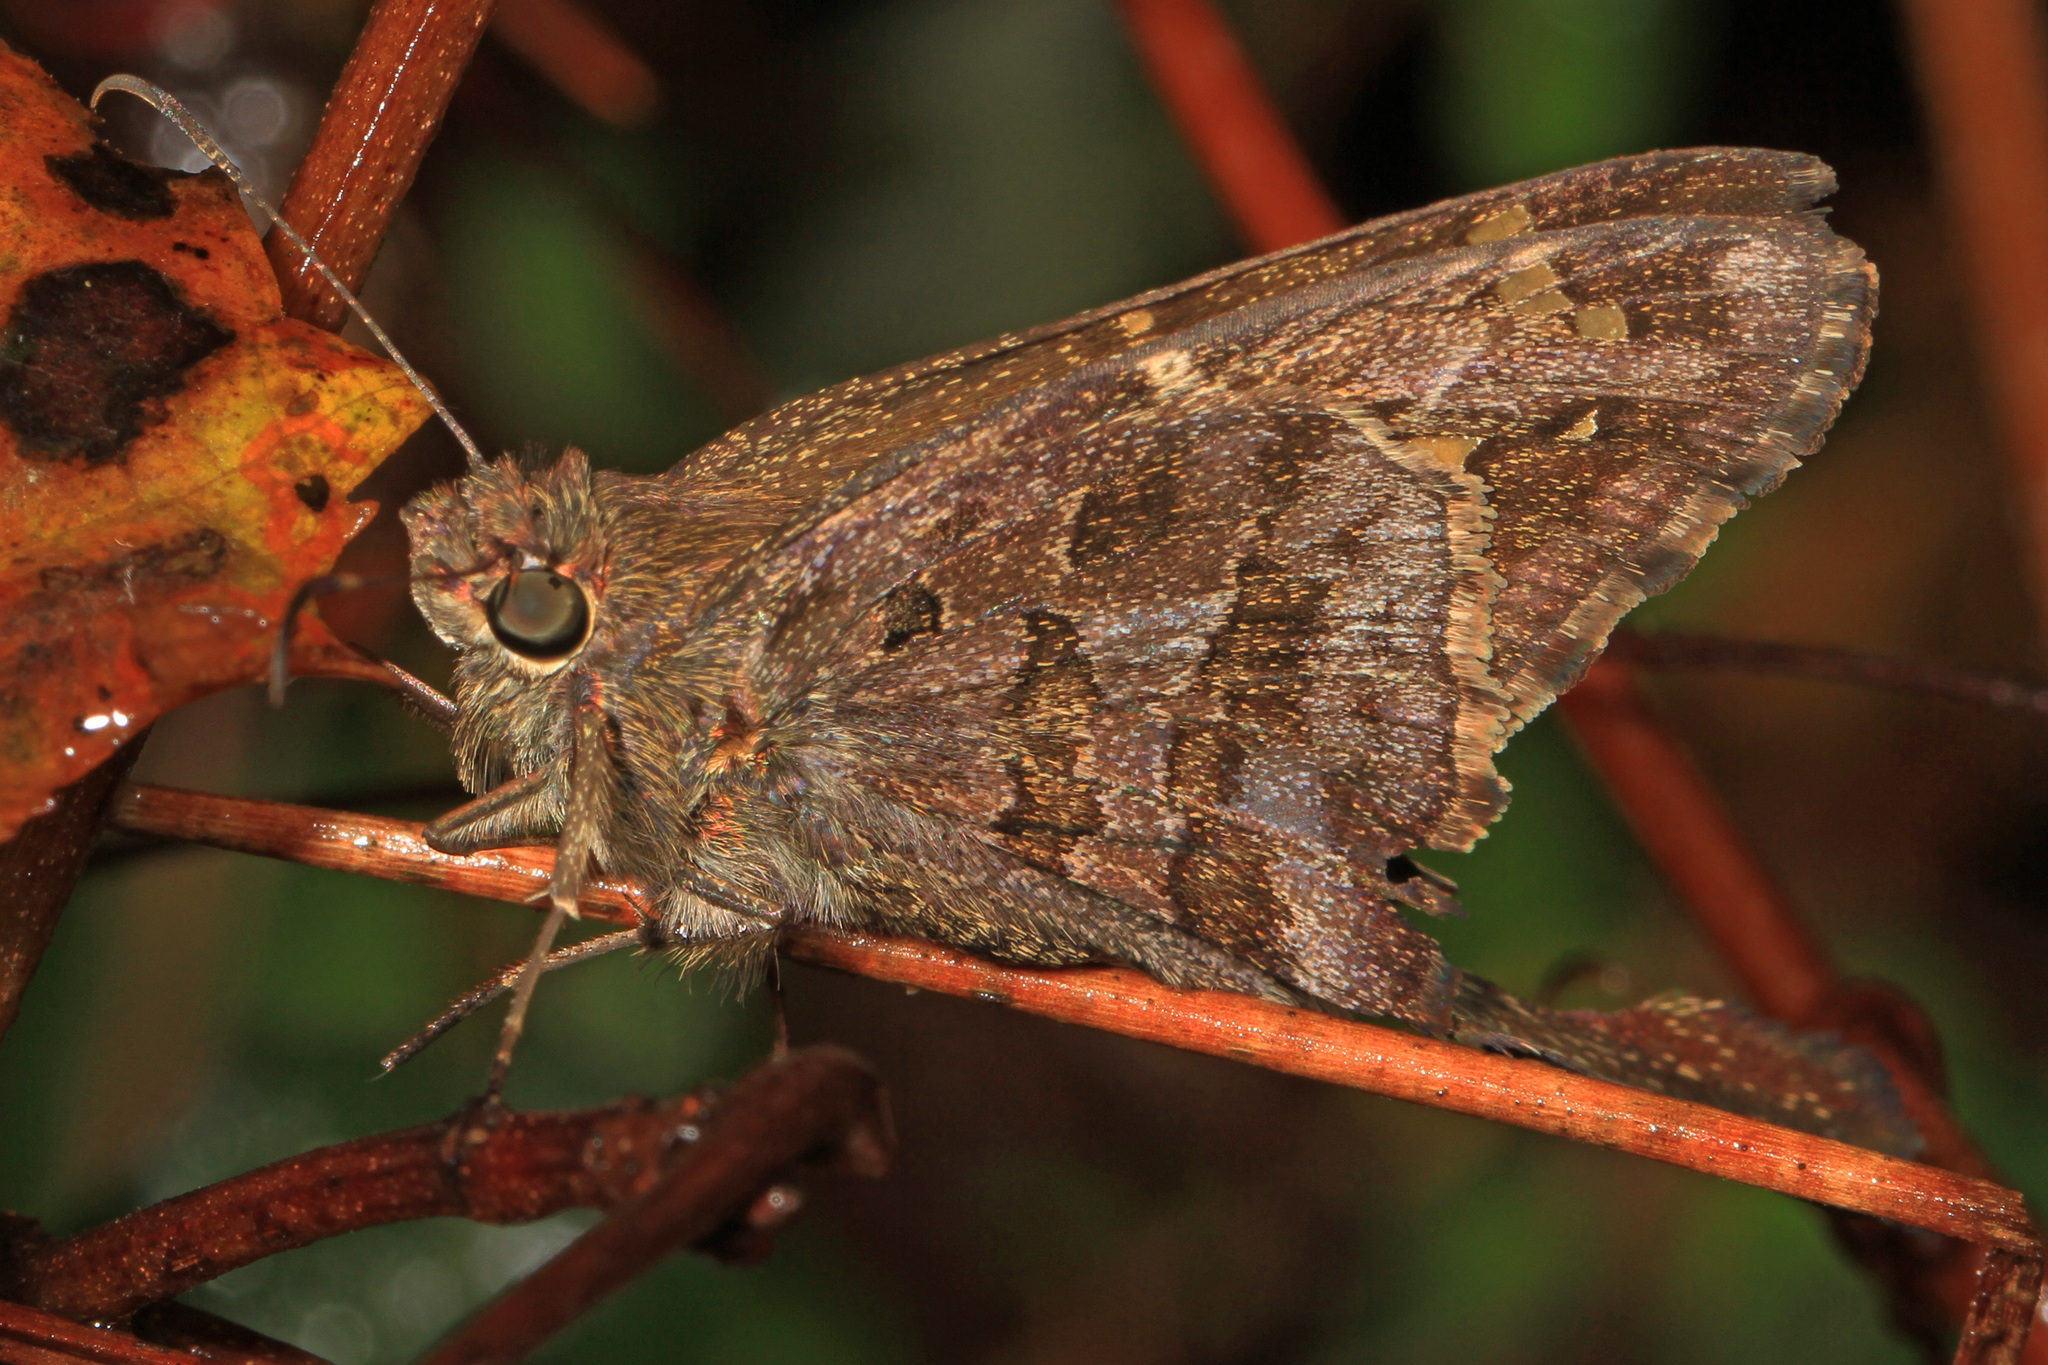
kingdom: Animalia
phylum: Arthropoda
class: Insecta
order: Lepidoptera
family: Hesperiidae
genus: Thorybes
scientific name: Thorybes
